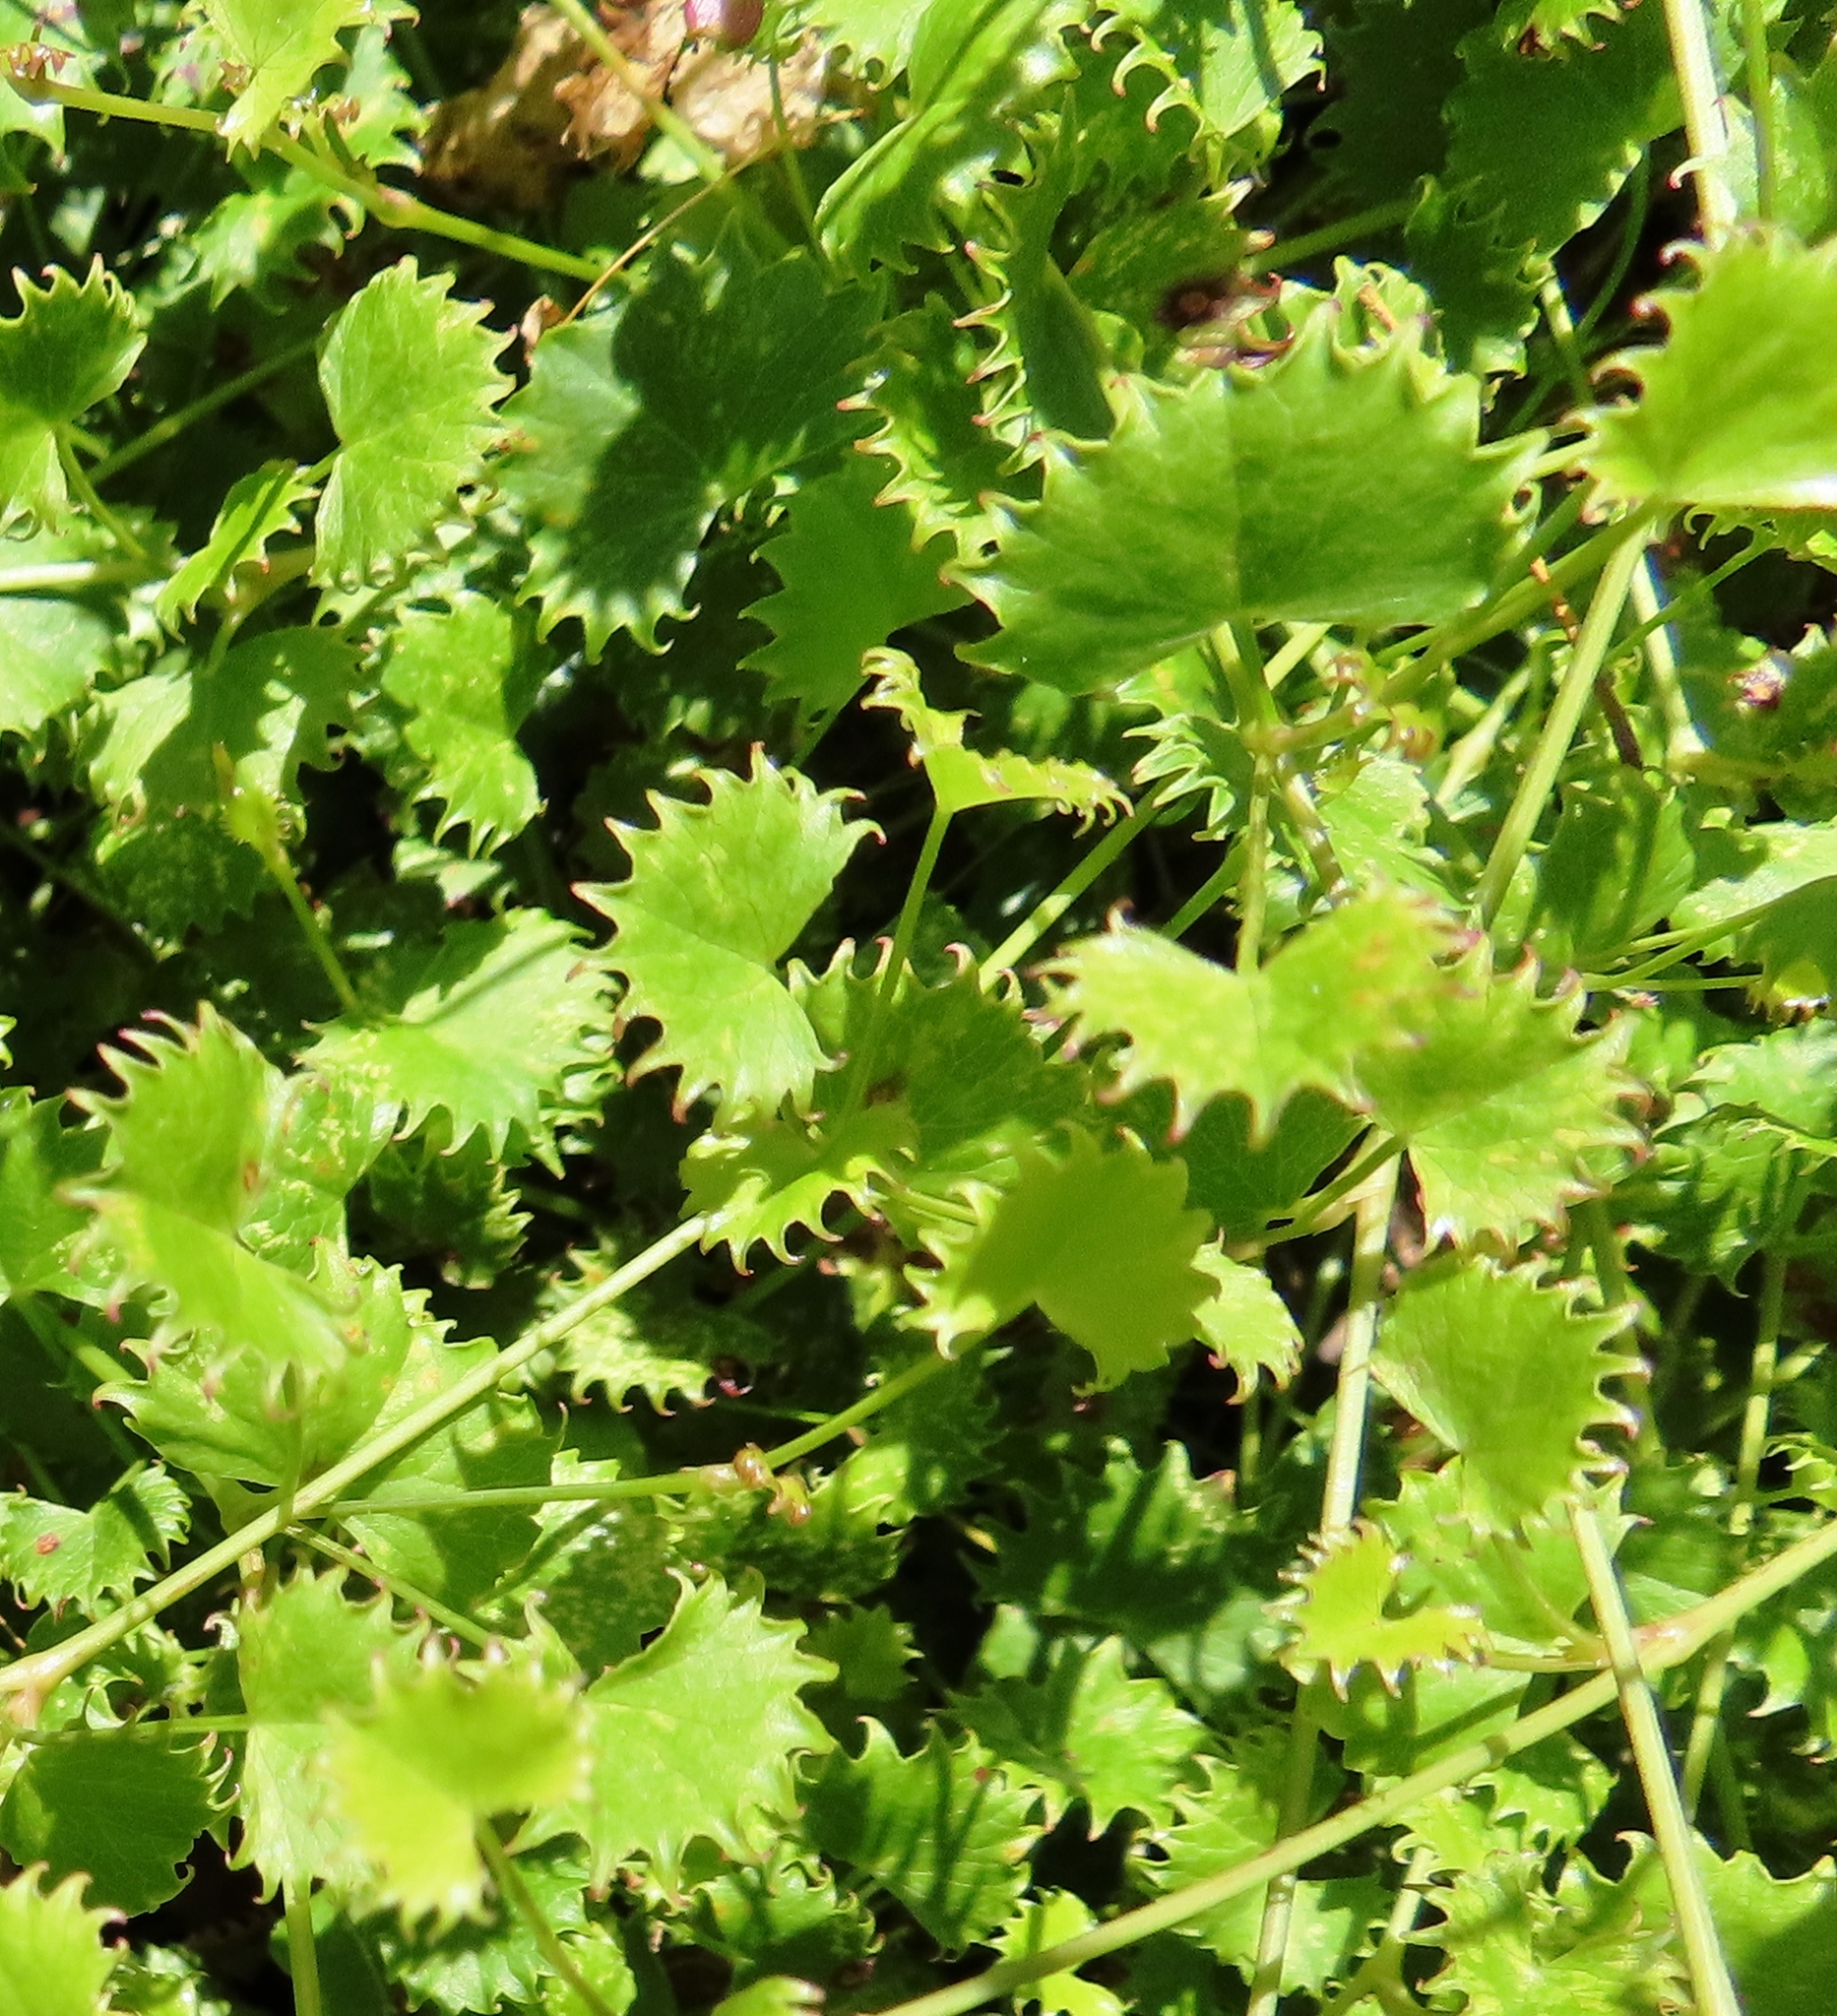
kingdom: Plantae
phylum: Tracheophyta
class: Magnoliopsida
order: Apiales
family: Apiaceae
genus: Centella
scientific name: Centella callioda
